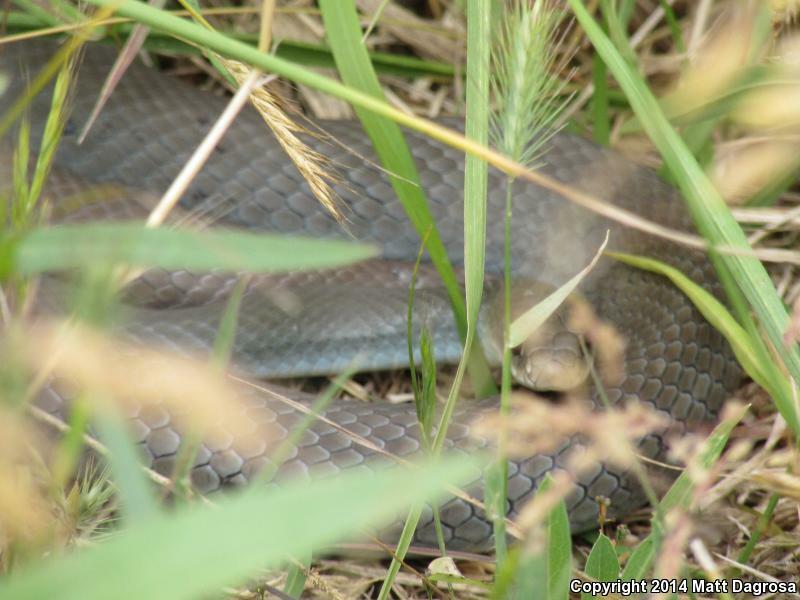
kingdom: Animalia
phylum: Chordata
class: Squamata
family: Colubridae
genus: Coluber
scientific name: Coluber constrictor
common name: Eastern racer
